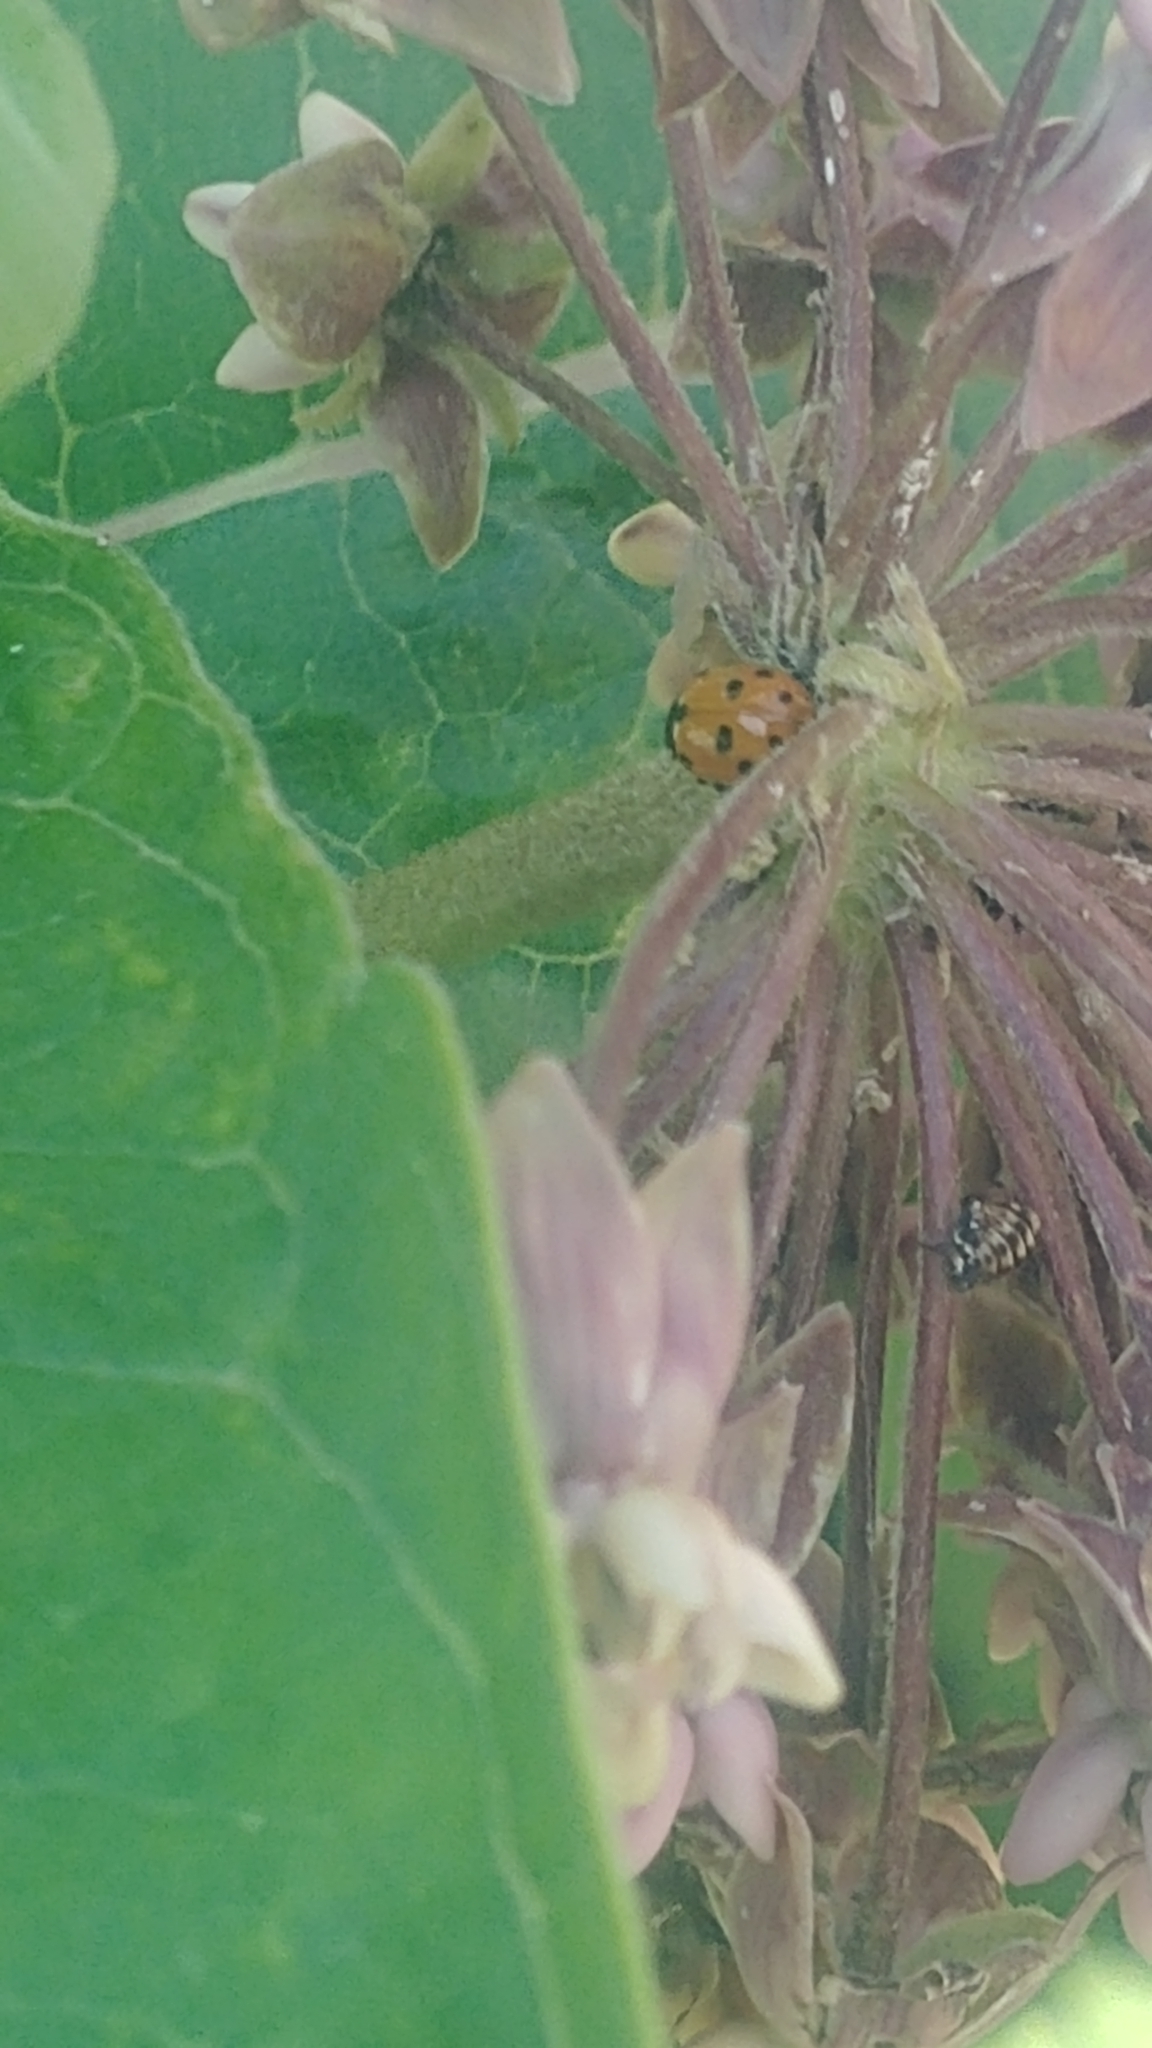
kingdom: Animalia
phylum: Arthropoda
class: Insecta
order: Coleoptera
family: Coccinellidae
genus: Harmonia
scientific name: Harmonia axyridis
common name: Harlequin ladybird
